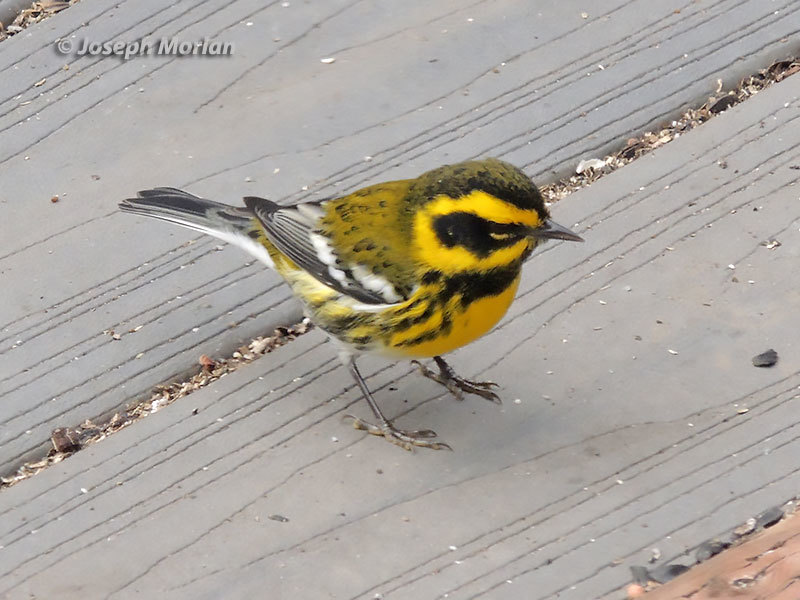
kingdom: Animalia
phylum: Chordata
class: Aves
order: Passeriformes
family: Parulidae
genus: Setophaga
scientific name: Setophaga townsendi
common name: Townsend's warbler
